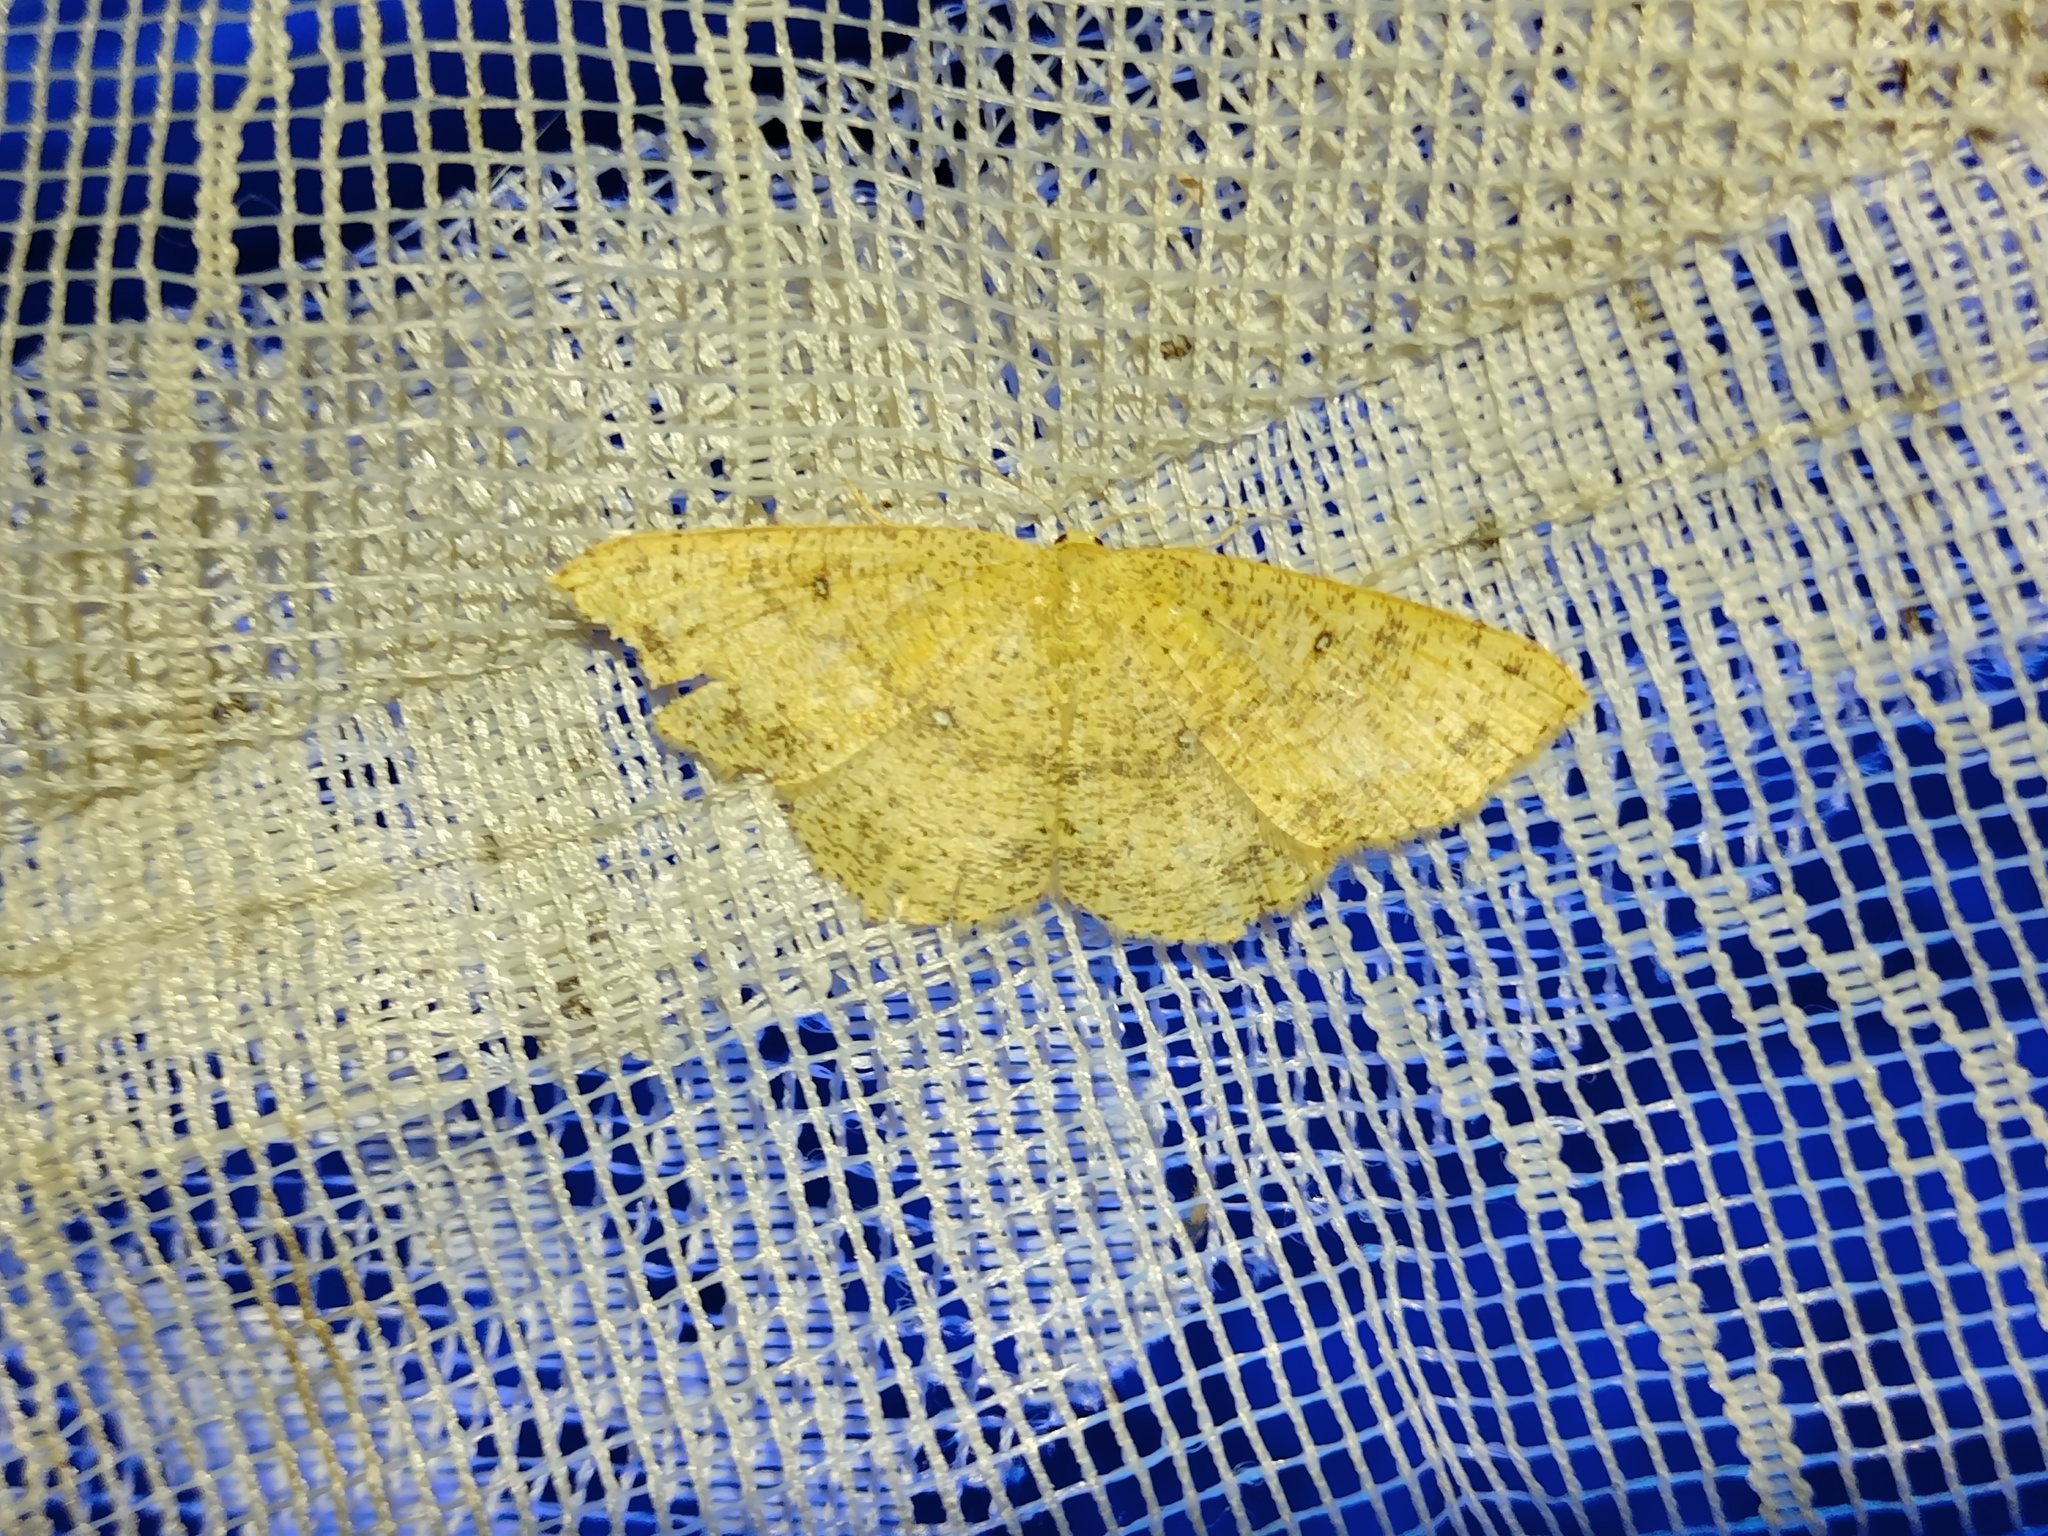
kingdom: Animalia
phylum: Arthropoda
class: Insecta
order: Lepidoptera
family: Geometridae
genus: Cyclophora
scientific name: Cyclophora porata
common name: False mocha
